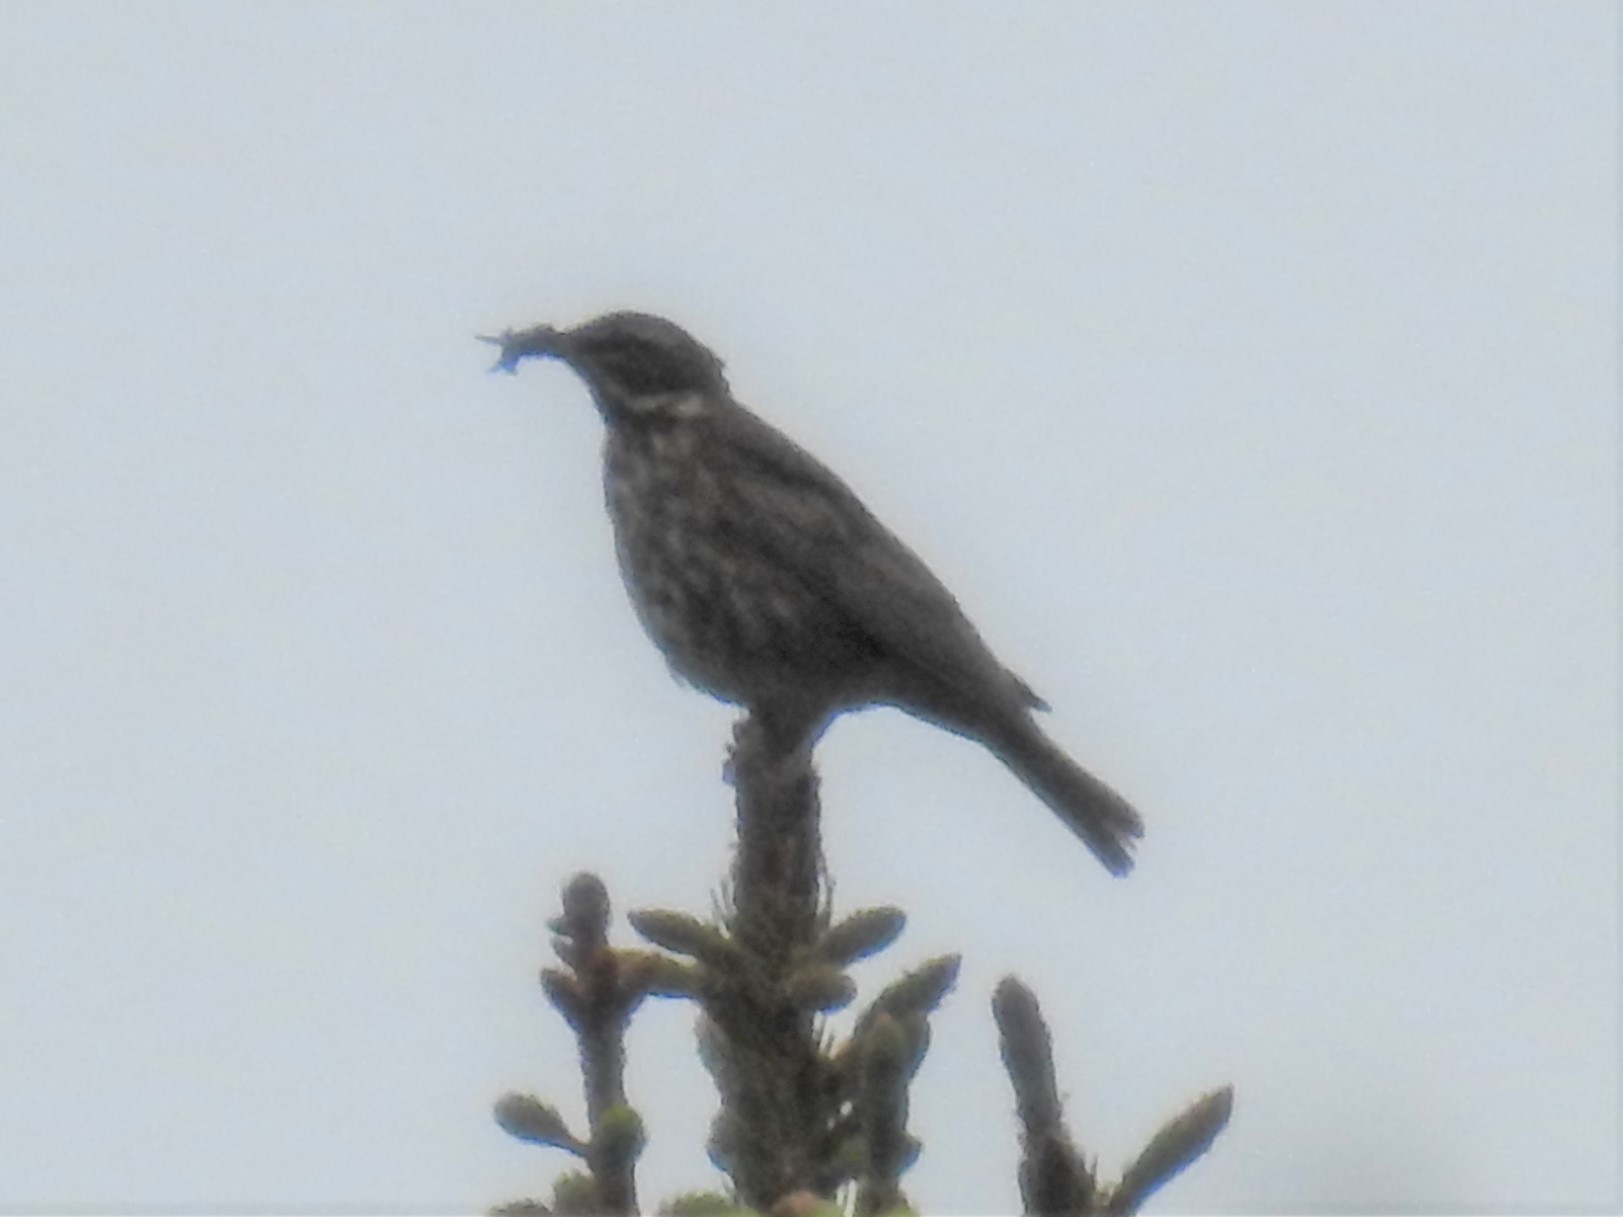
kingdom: Animalia
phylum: Chordata
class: Aves
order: Passeriformes
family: Turdidae
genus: Turdus
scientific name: Turdus iliacus
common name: Redwing
